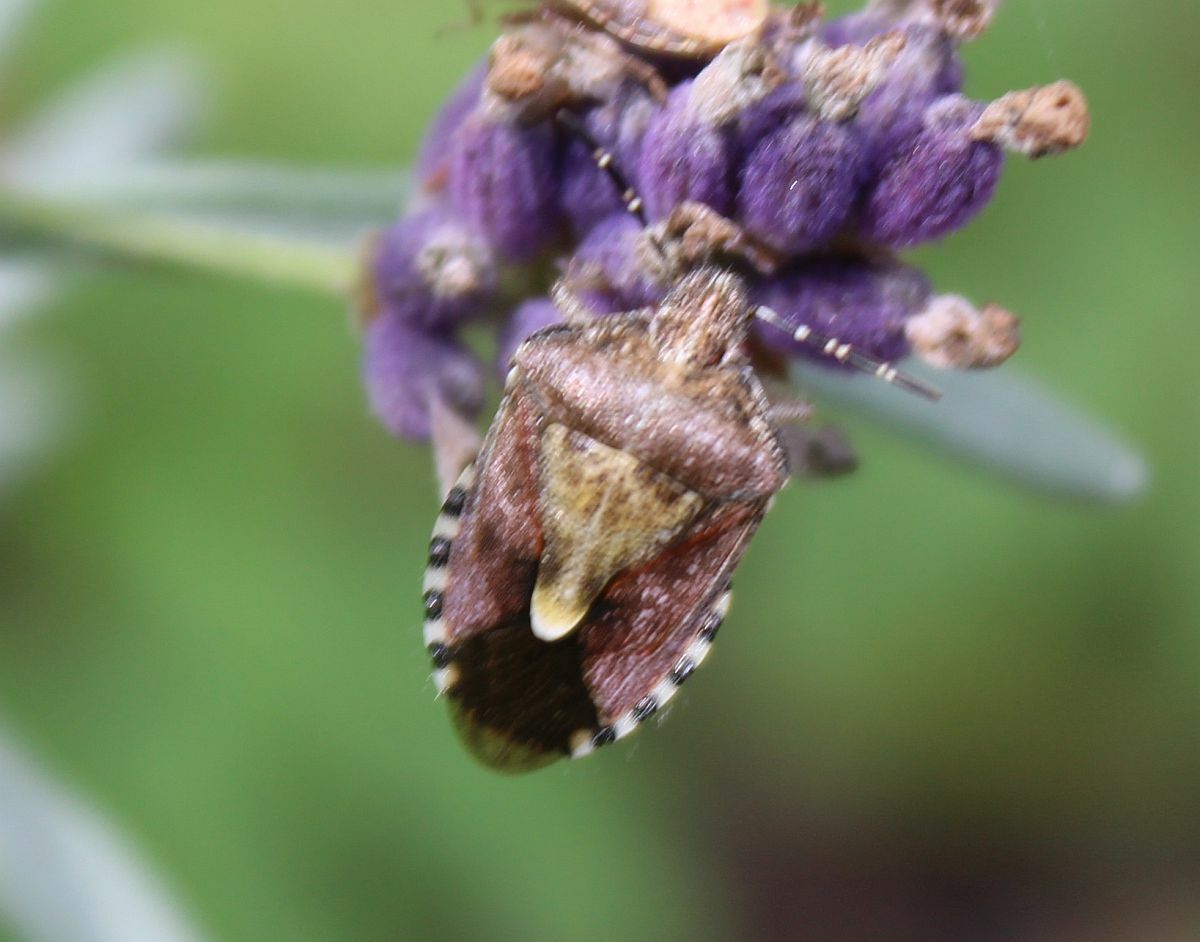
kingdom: Animalia
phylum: Arthropoda
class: Insecta
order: Hemiptera
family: Pentatomidae
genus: Dolycoris
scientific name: Dolycoris baccarum
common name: Sloe bug
